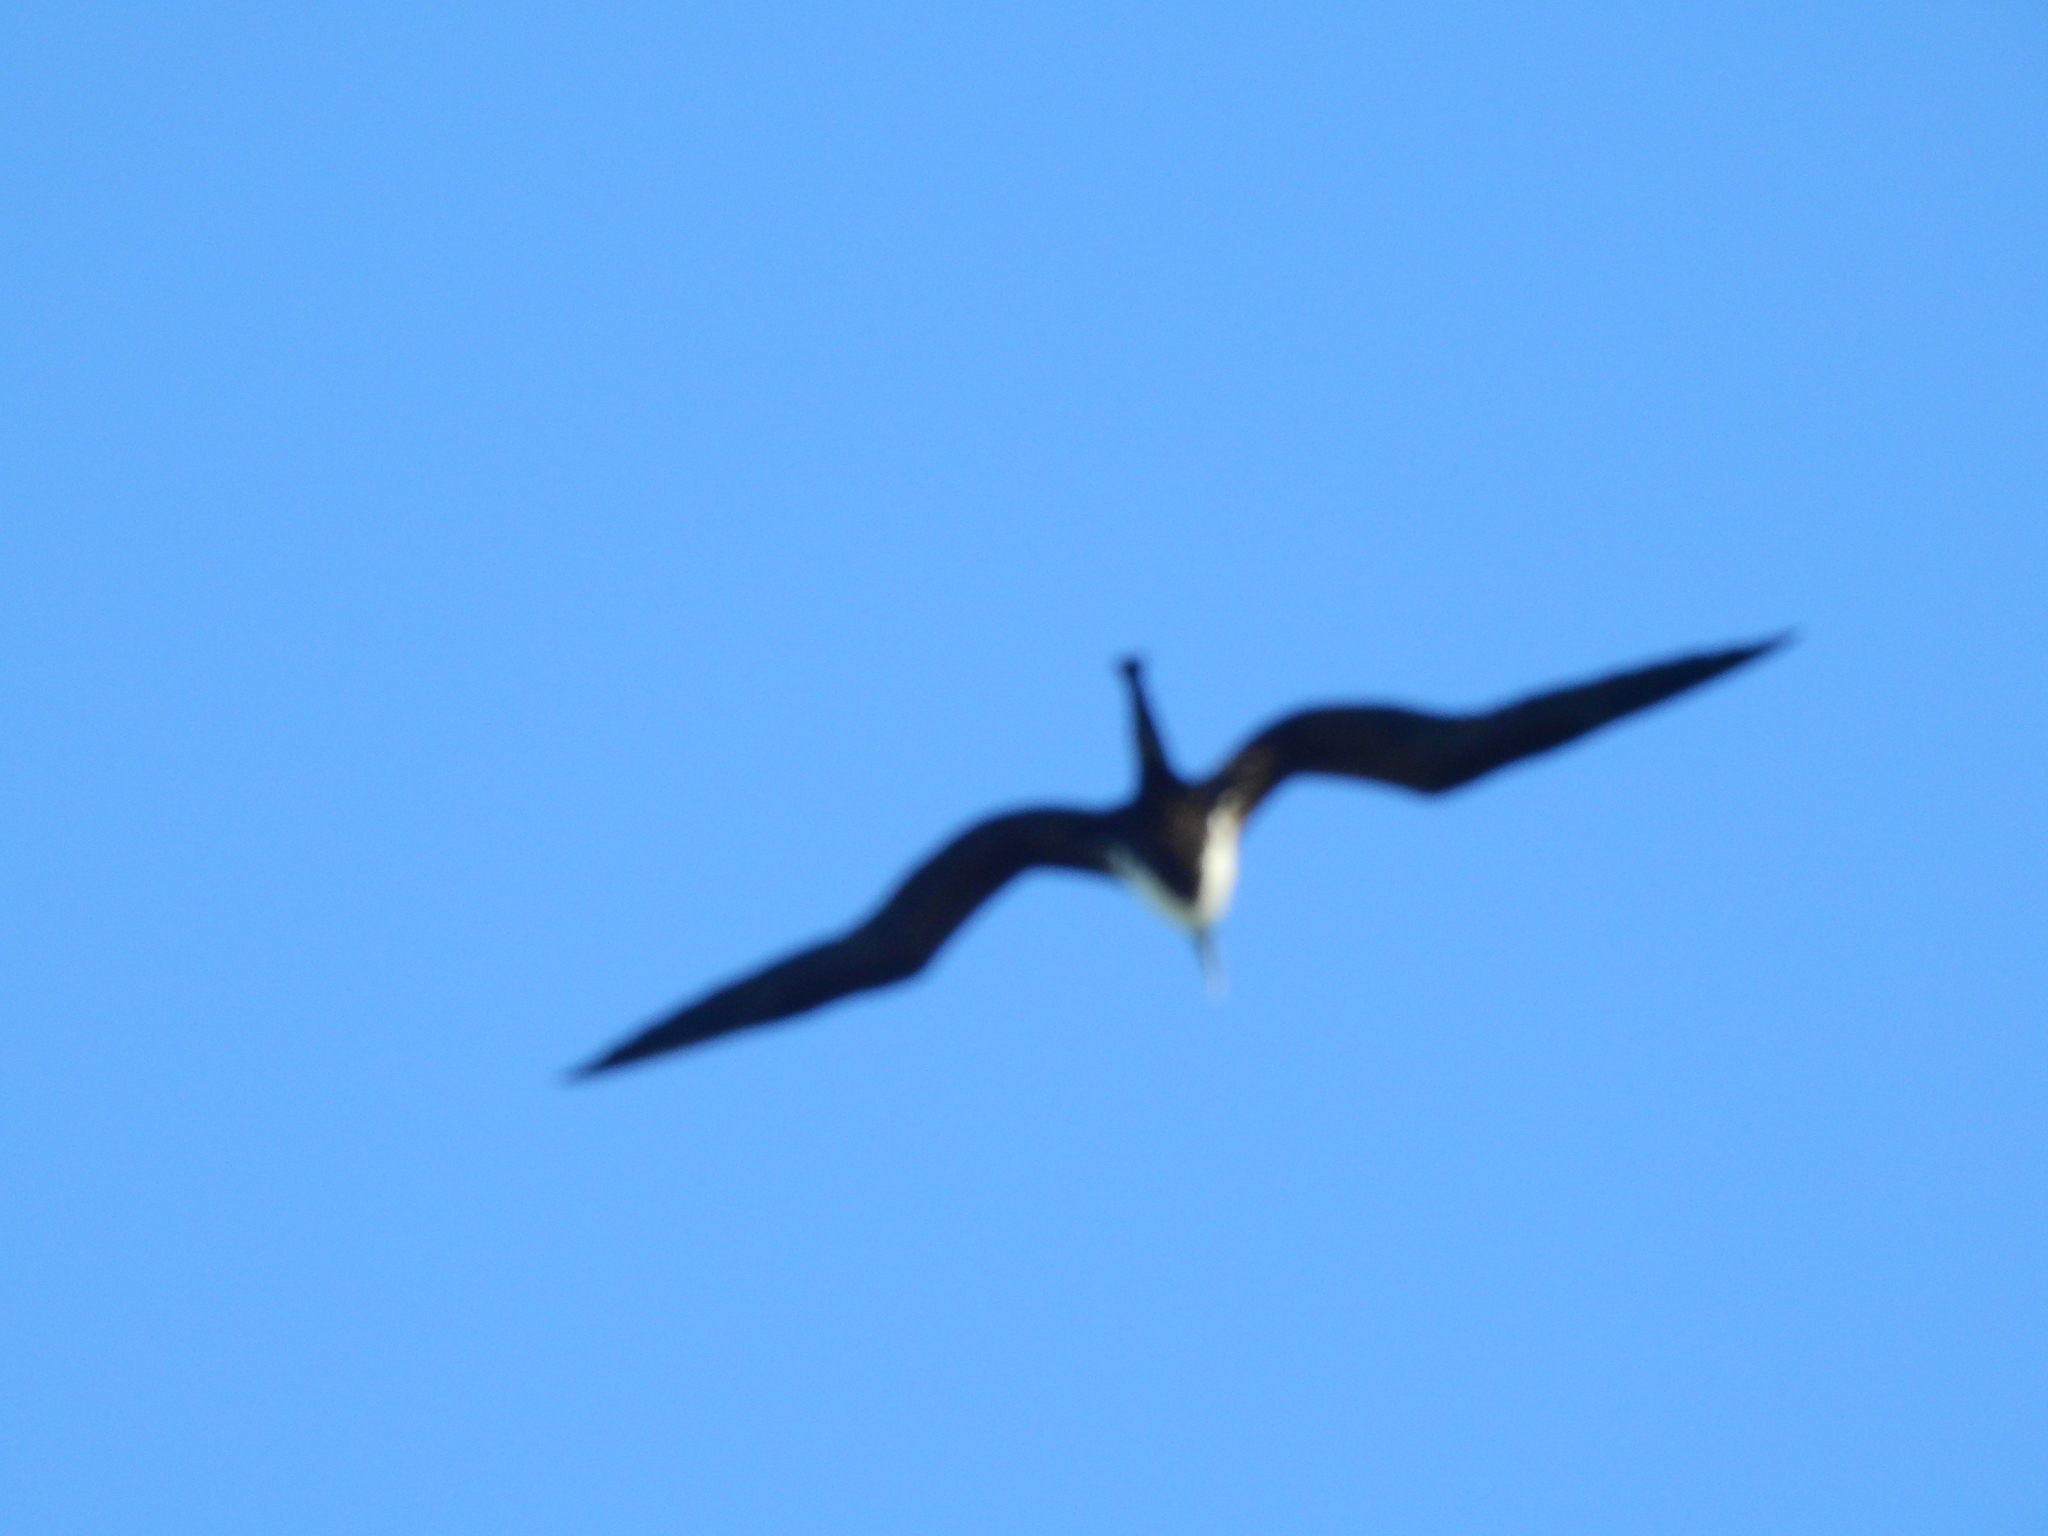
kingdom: Animalia
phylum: Chordata
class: Aves
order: Suliformes
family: Fregatidae
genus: Fregata
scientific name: Fregata magnificens
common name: Magnificent frigatebird
